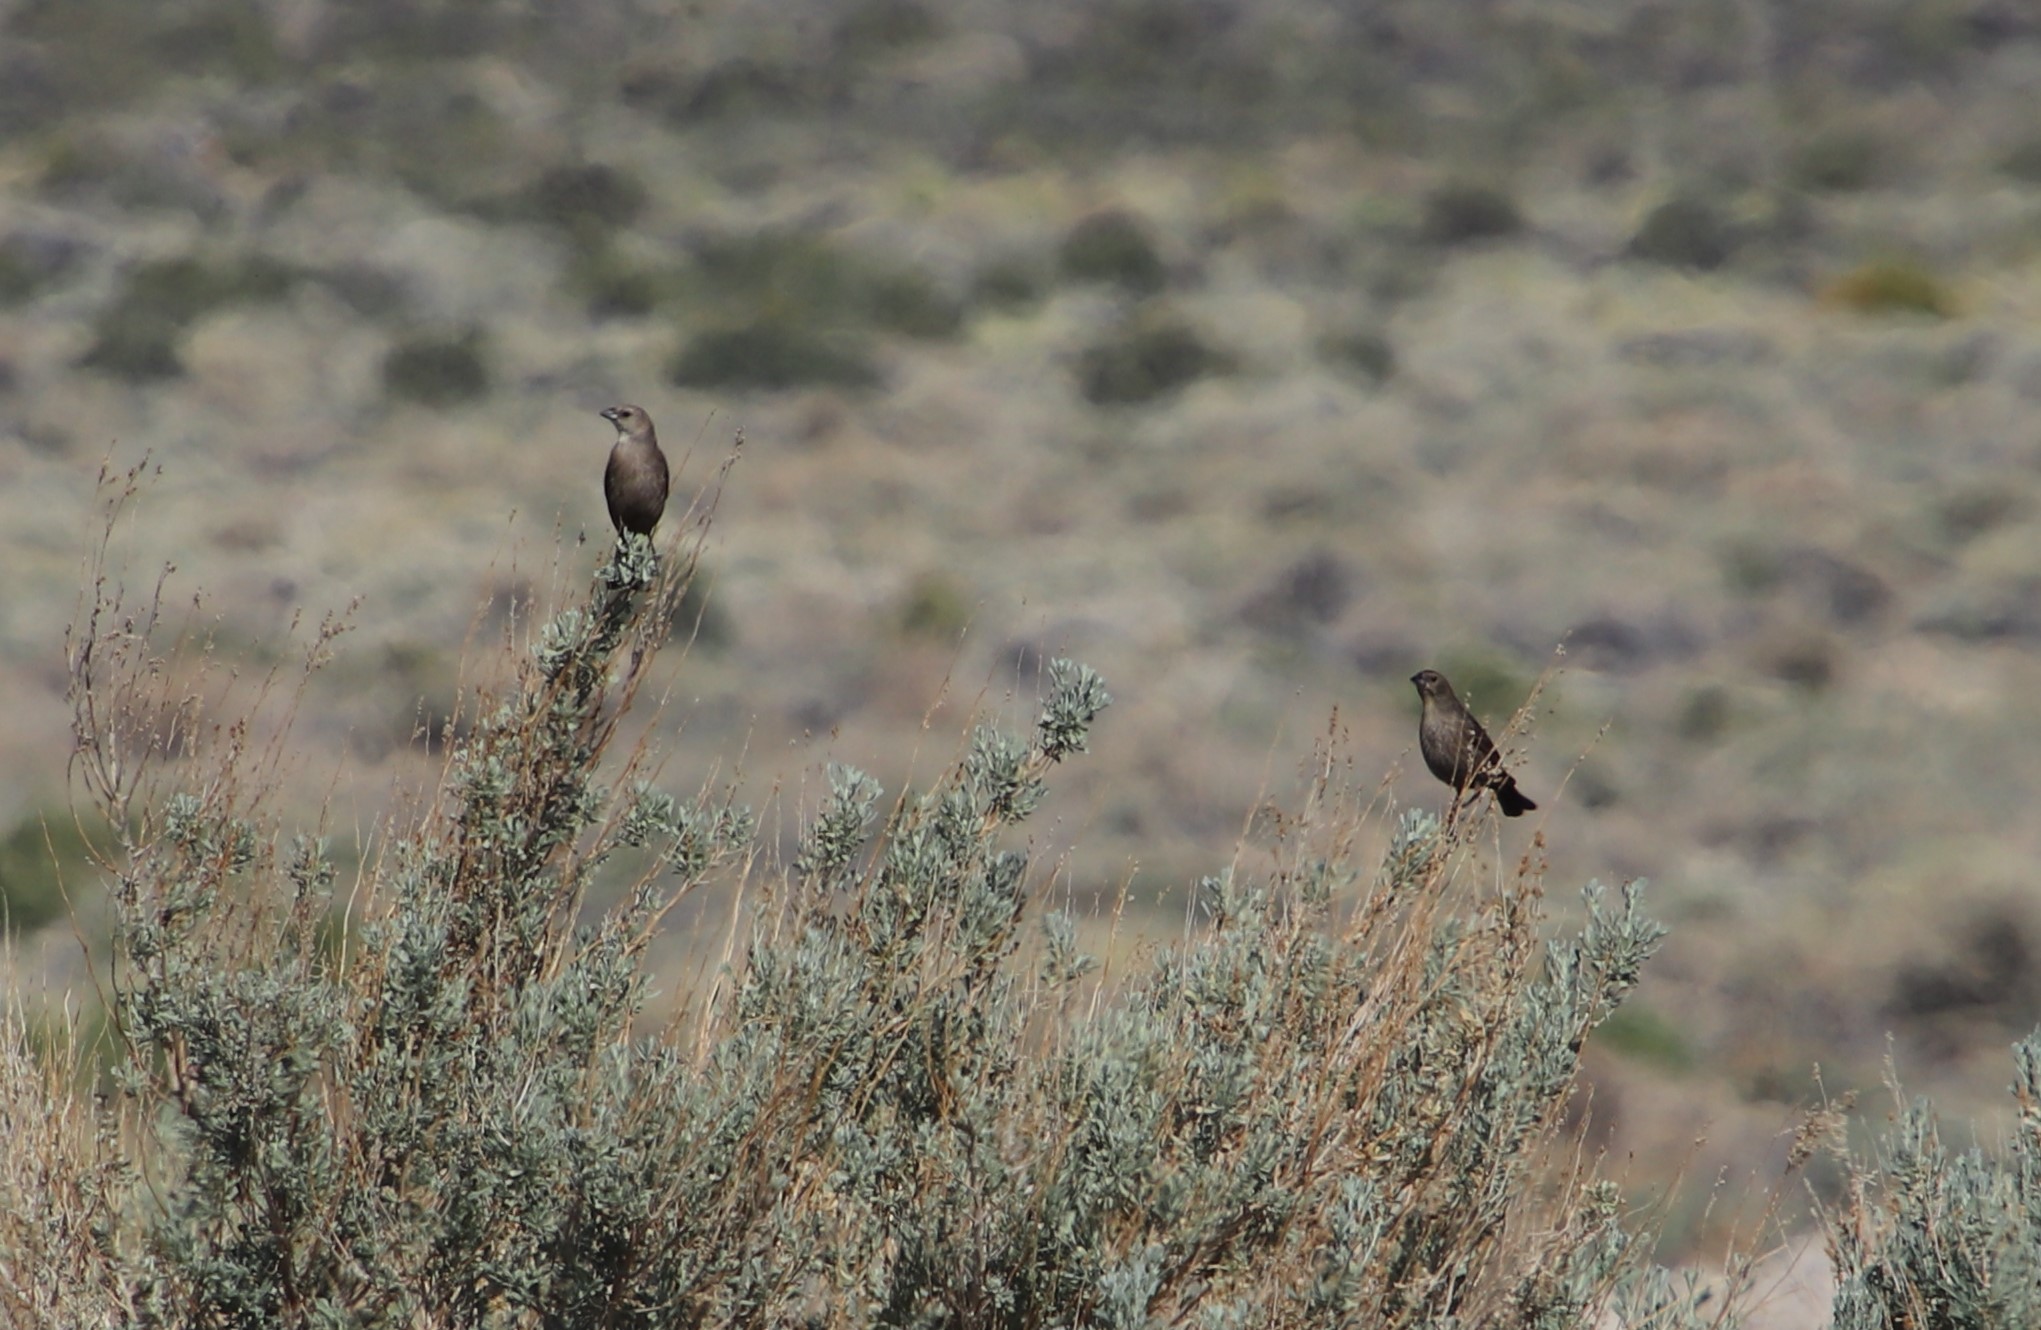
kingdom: Animalia
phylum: Chordata
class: Aves
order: Passeriformes
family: Icteridae
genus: Molothrus
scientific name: Molothrus ater
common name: Brown-headed cowbird
